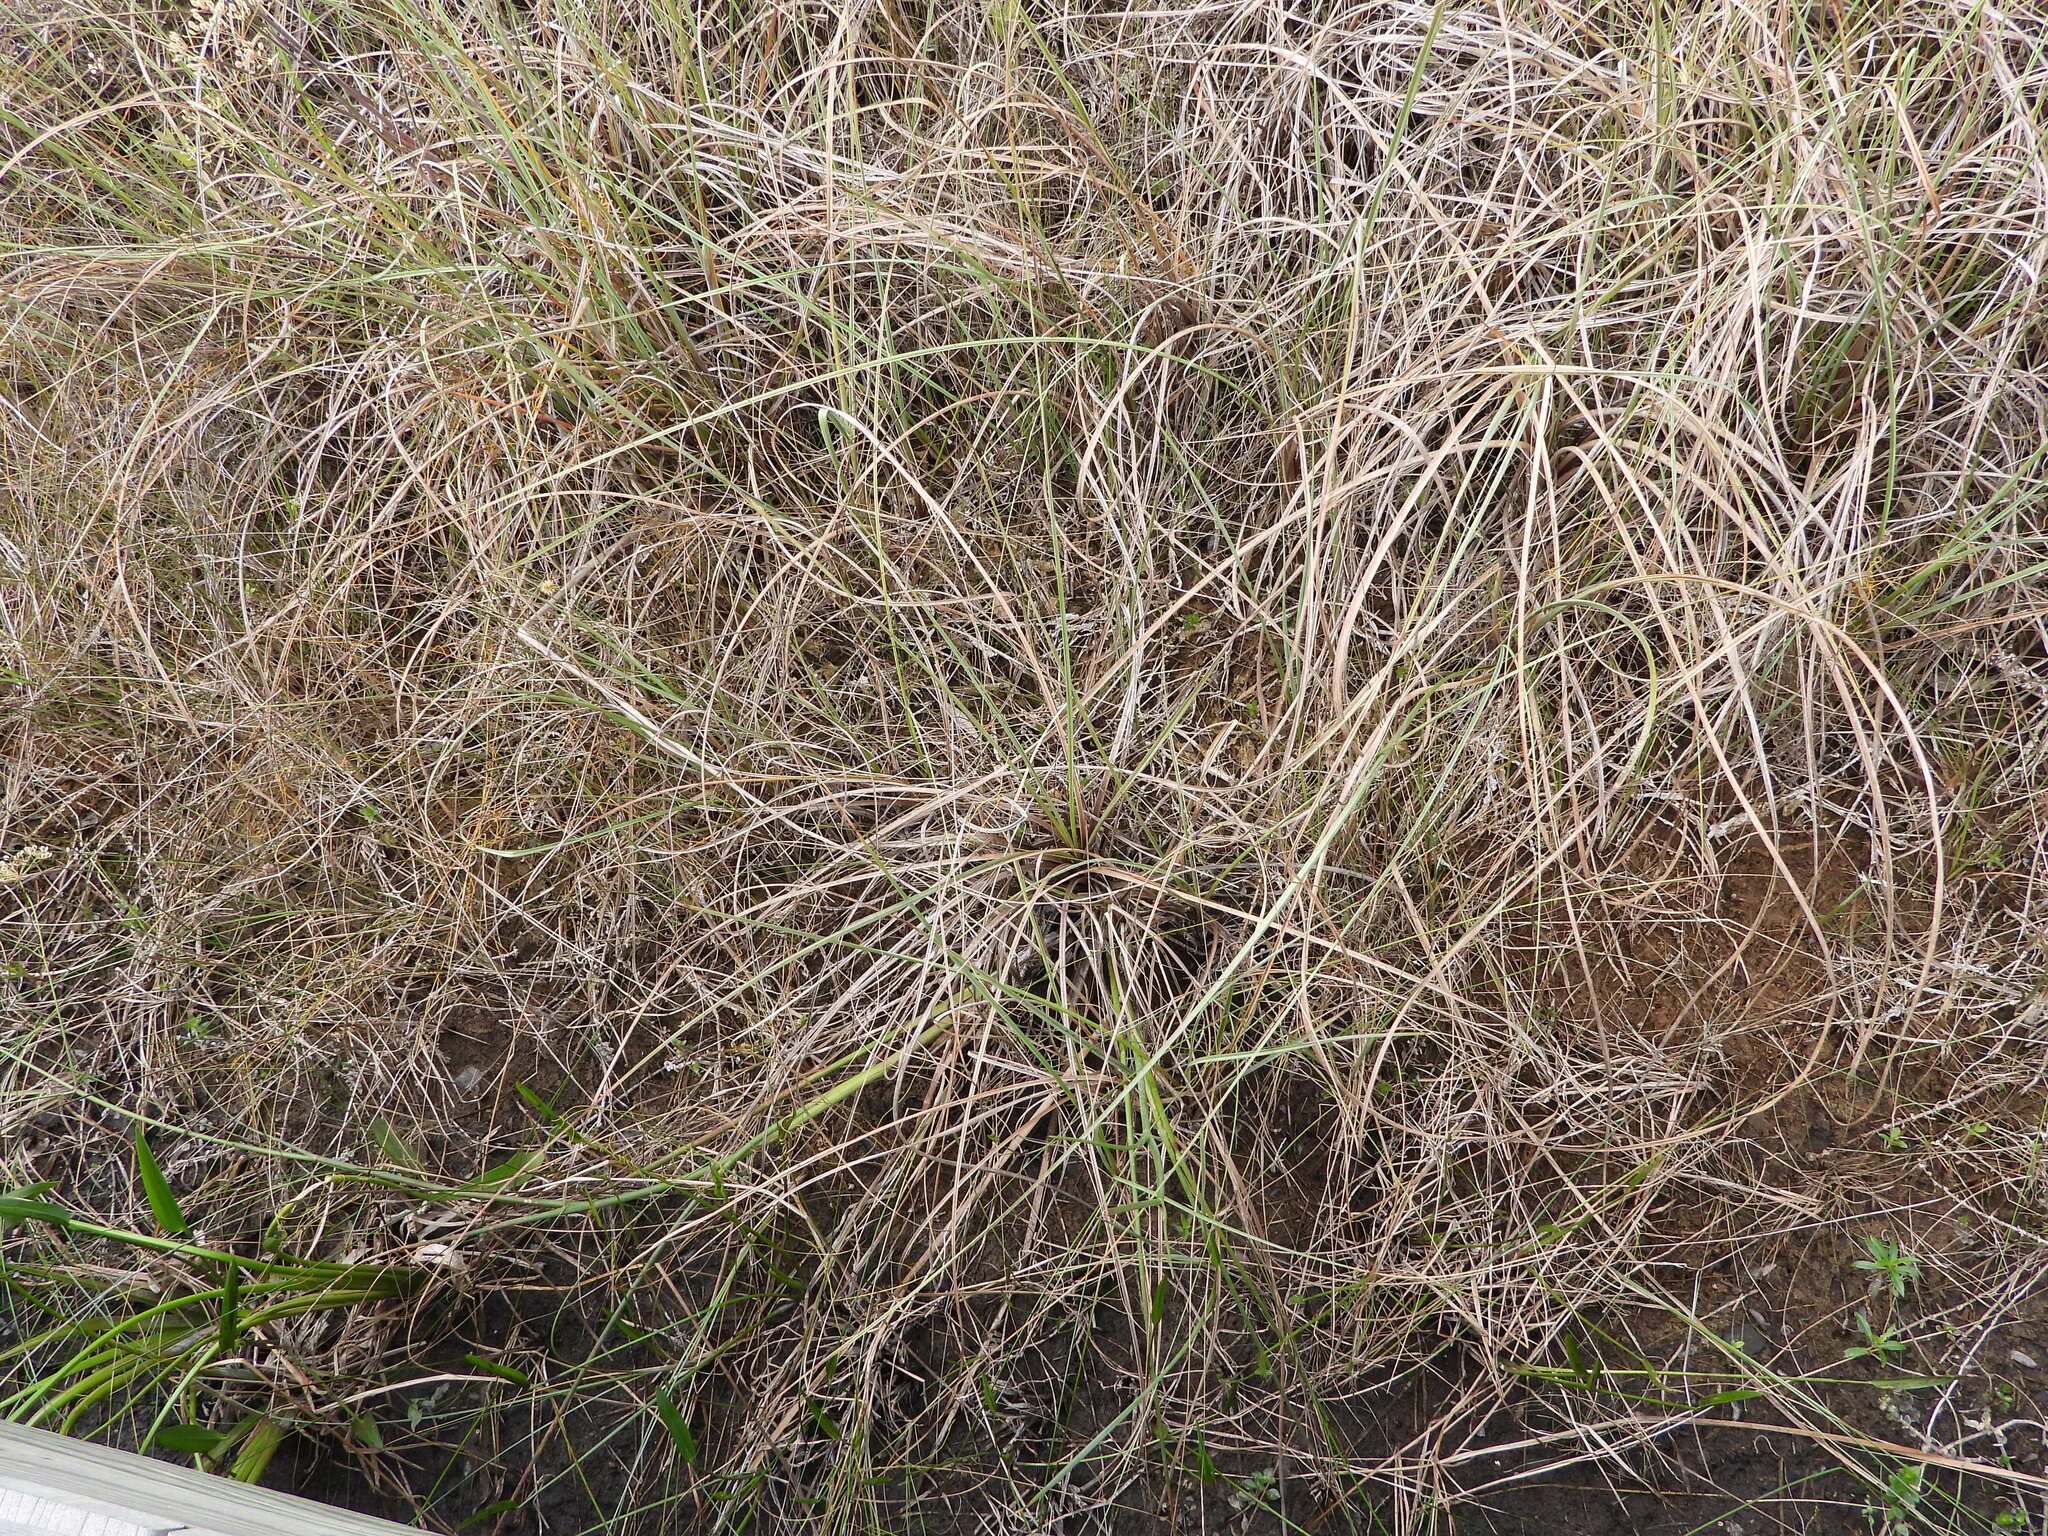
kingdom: Plantae
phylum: Tracheophyta
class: Liliopsida
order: Poales
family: Cyperaceae
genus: Cladium
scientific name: Cladium mariscus
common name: Great fen-sedge
